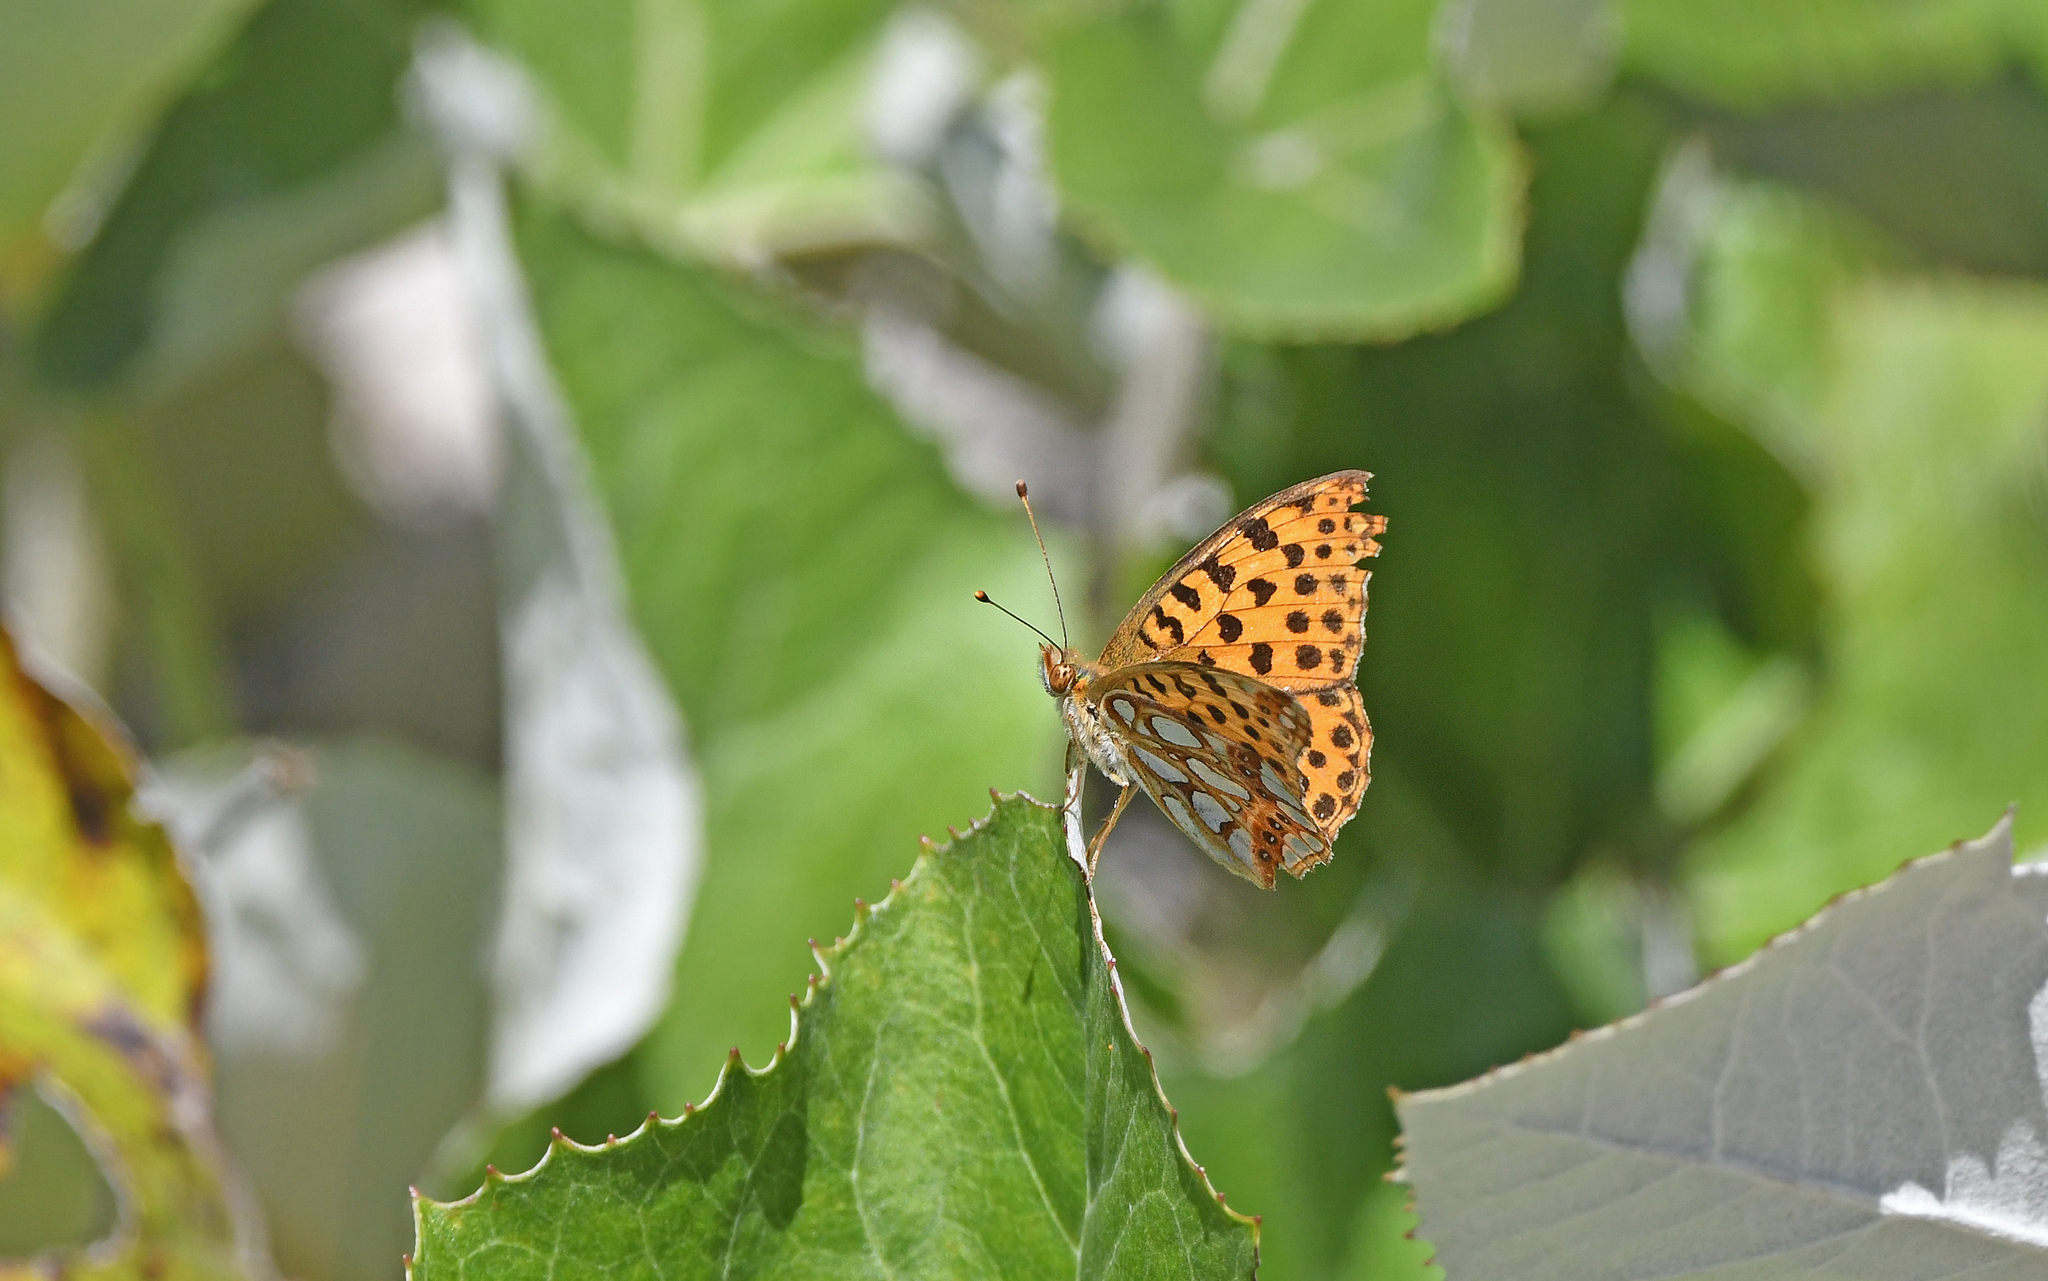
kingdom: Animalia
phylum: Arthropoda
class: Insecta
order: Lepidoptera
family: Nymphalidae
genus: Issoria
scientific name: Issoria lathonia
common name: Queen of spain fritillary
